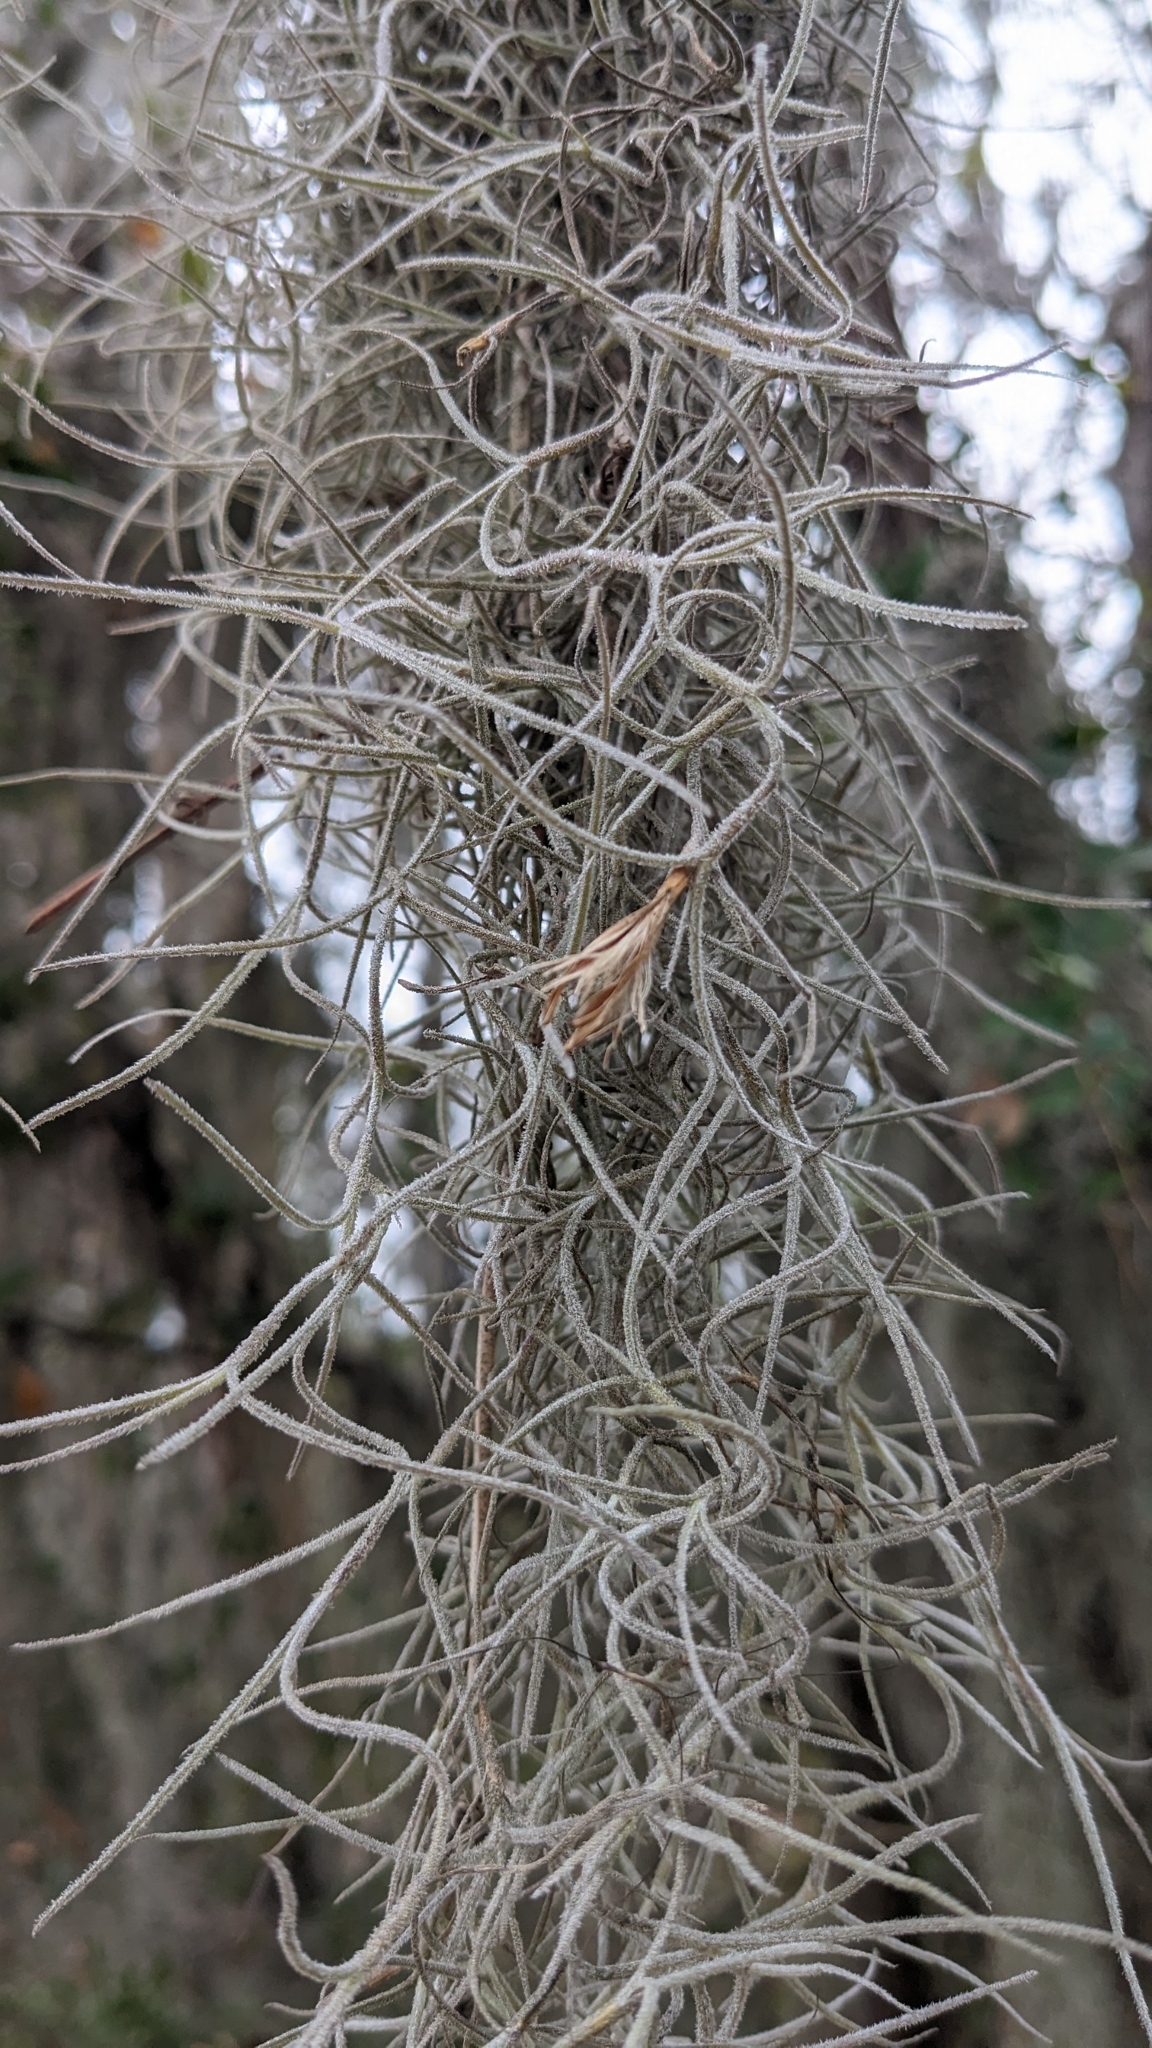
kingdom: Plantae
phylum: Tracheophyta
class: Liliopsida
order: Poales
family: Bromeliaceae
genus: Tillandsia
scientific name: Tillandsia usneoides
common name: Spanish moss
